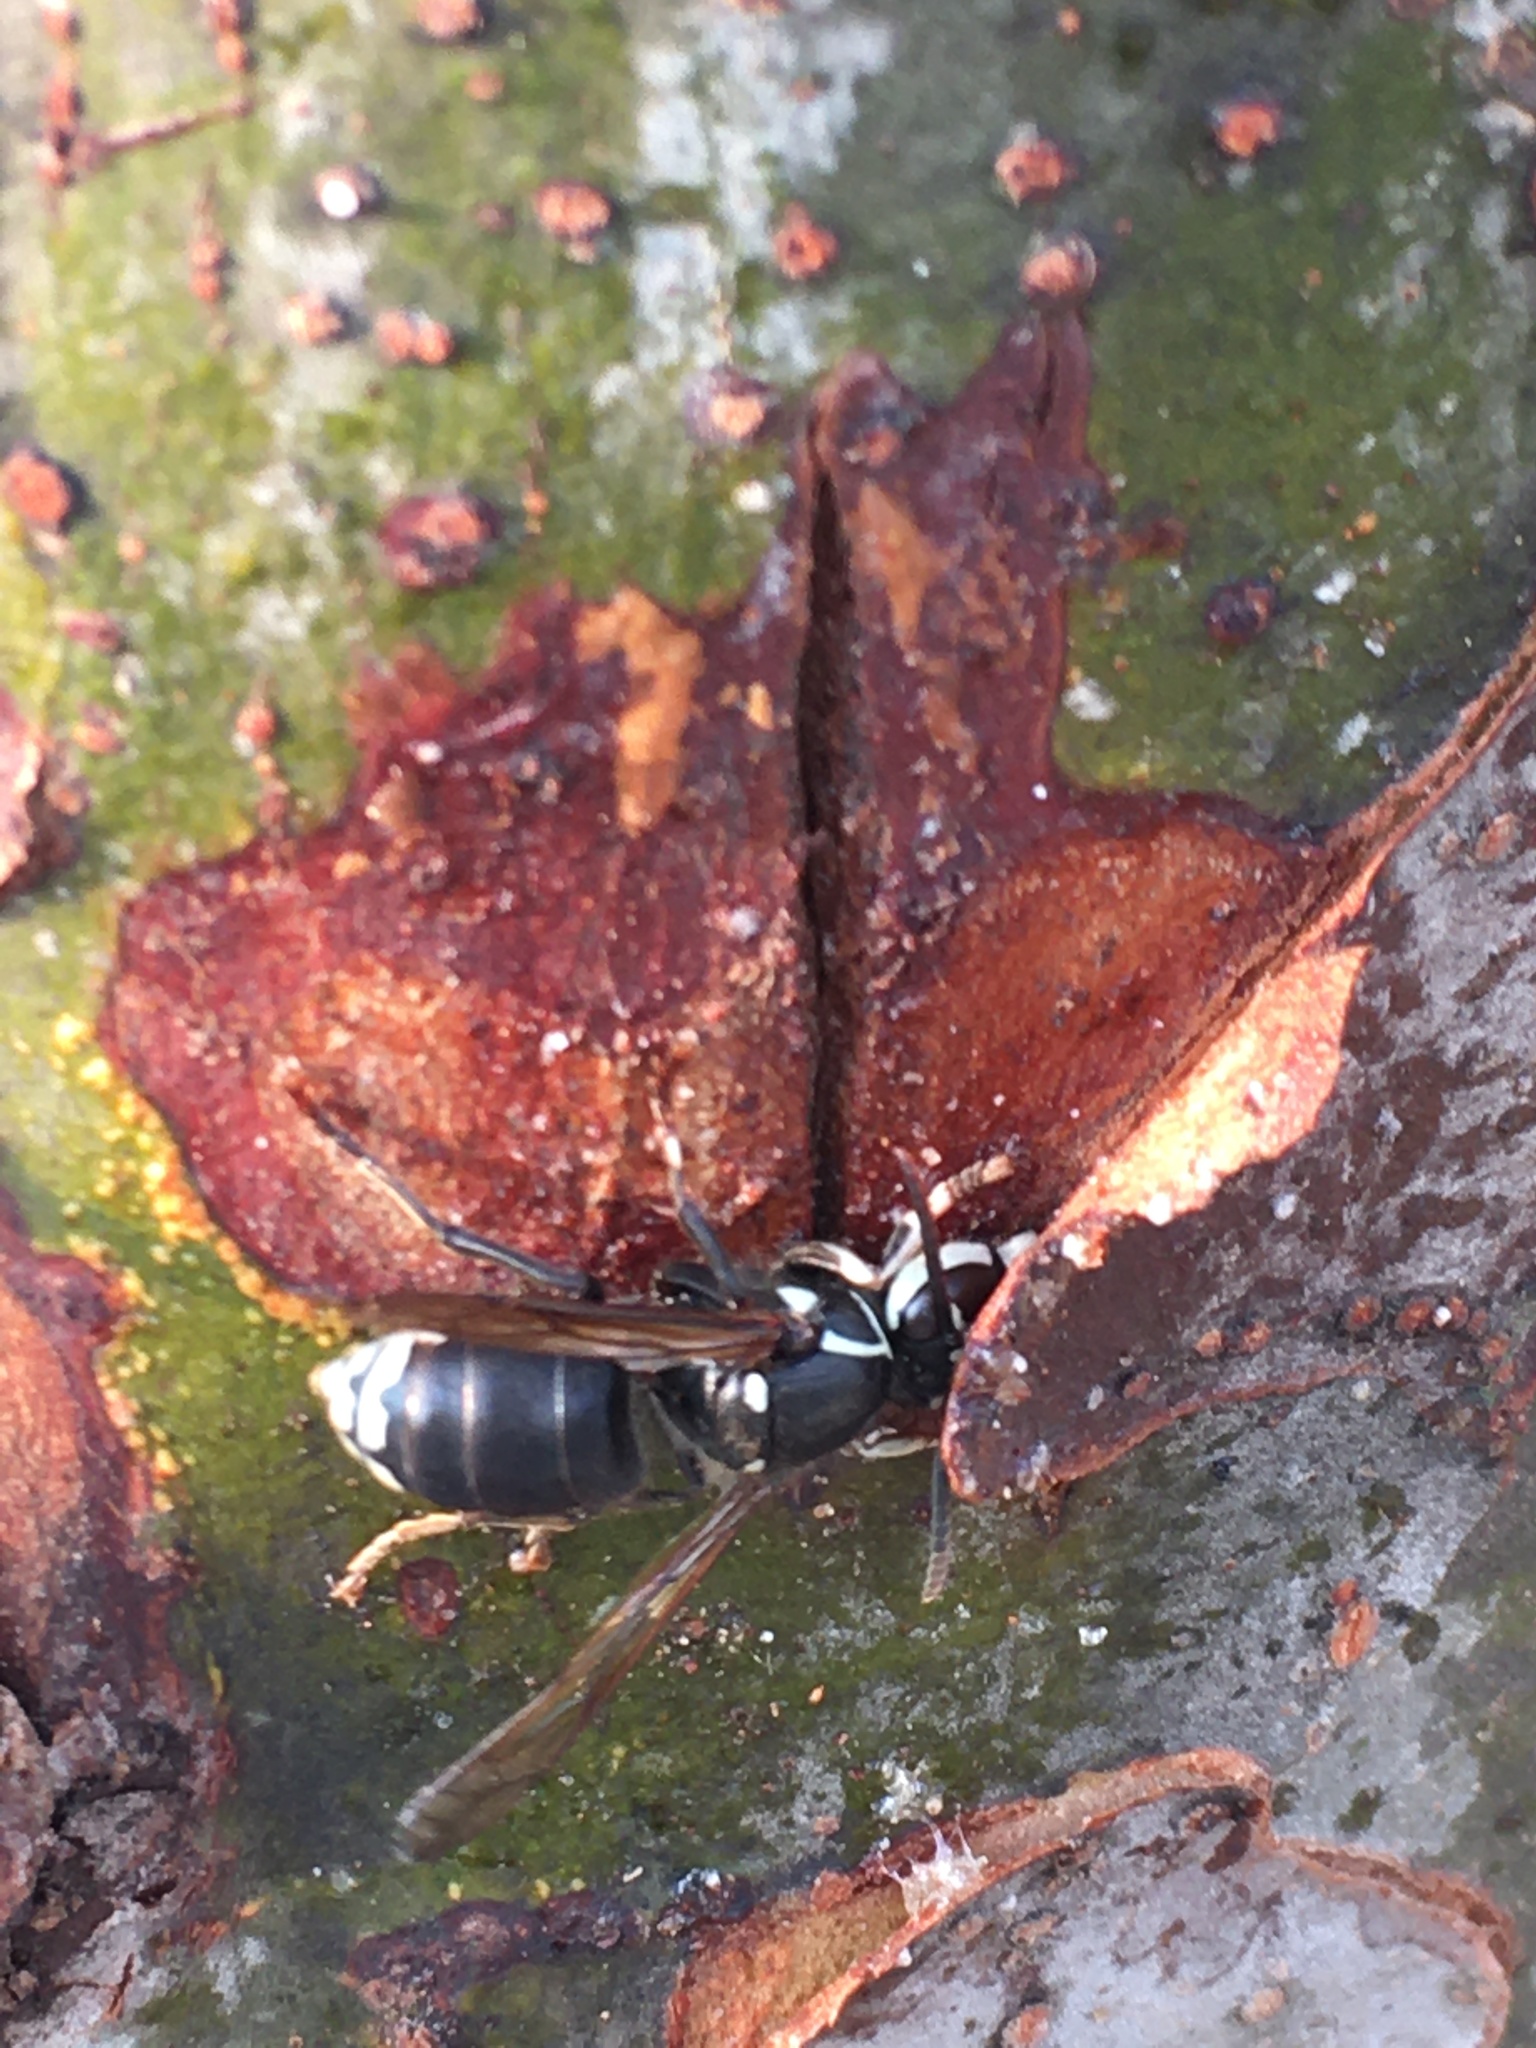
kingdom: Animalia
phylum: Arthropoda
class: Insecta
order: Hymenoptera
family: Vespidae
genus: Dolichovespula
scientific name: Dolichovespula maculata
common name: Bald-faced hornet
